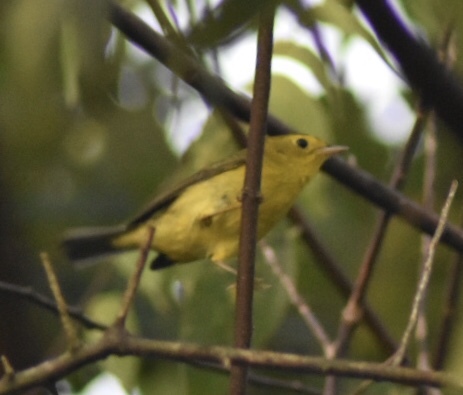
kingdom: Animalia
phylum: Chordata
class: Aves
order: Passeriformes
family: Parulidae
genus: Cardellina
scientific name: Cardellina pusilla
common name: Wilson's warbler
